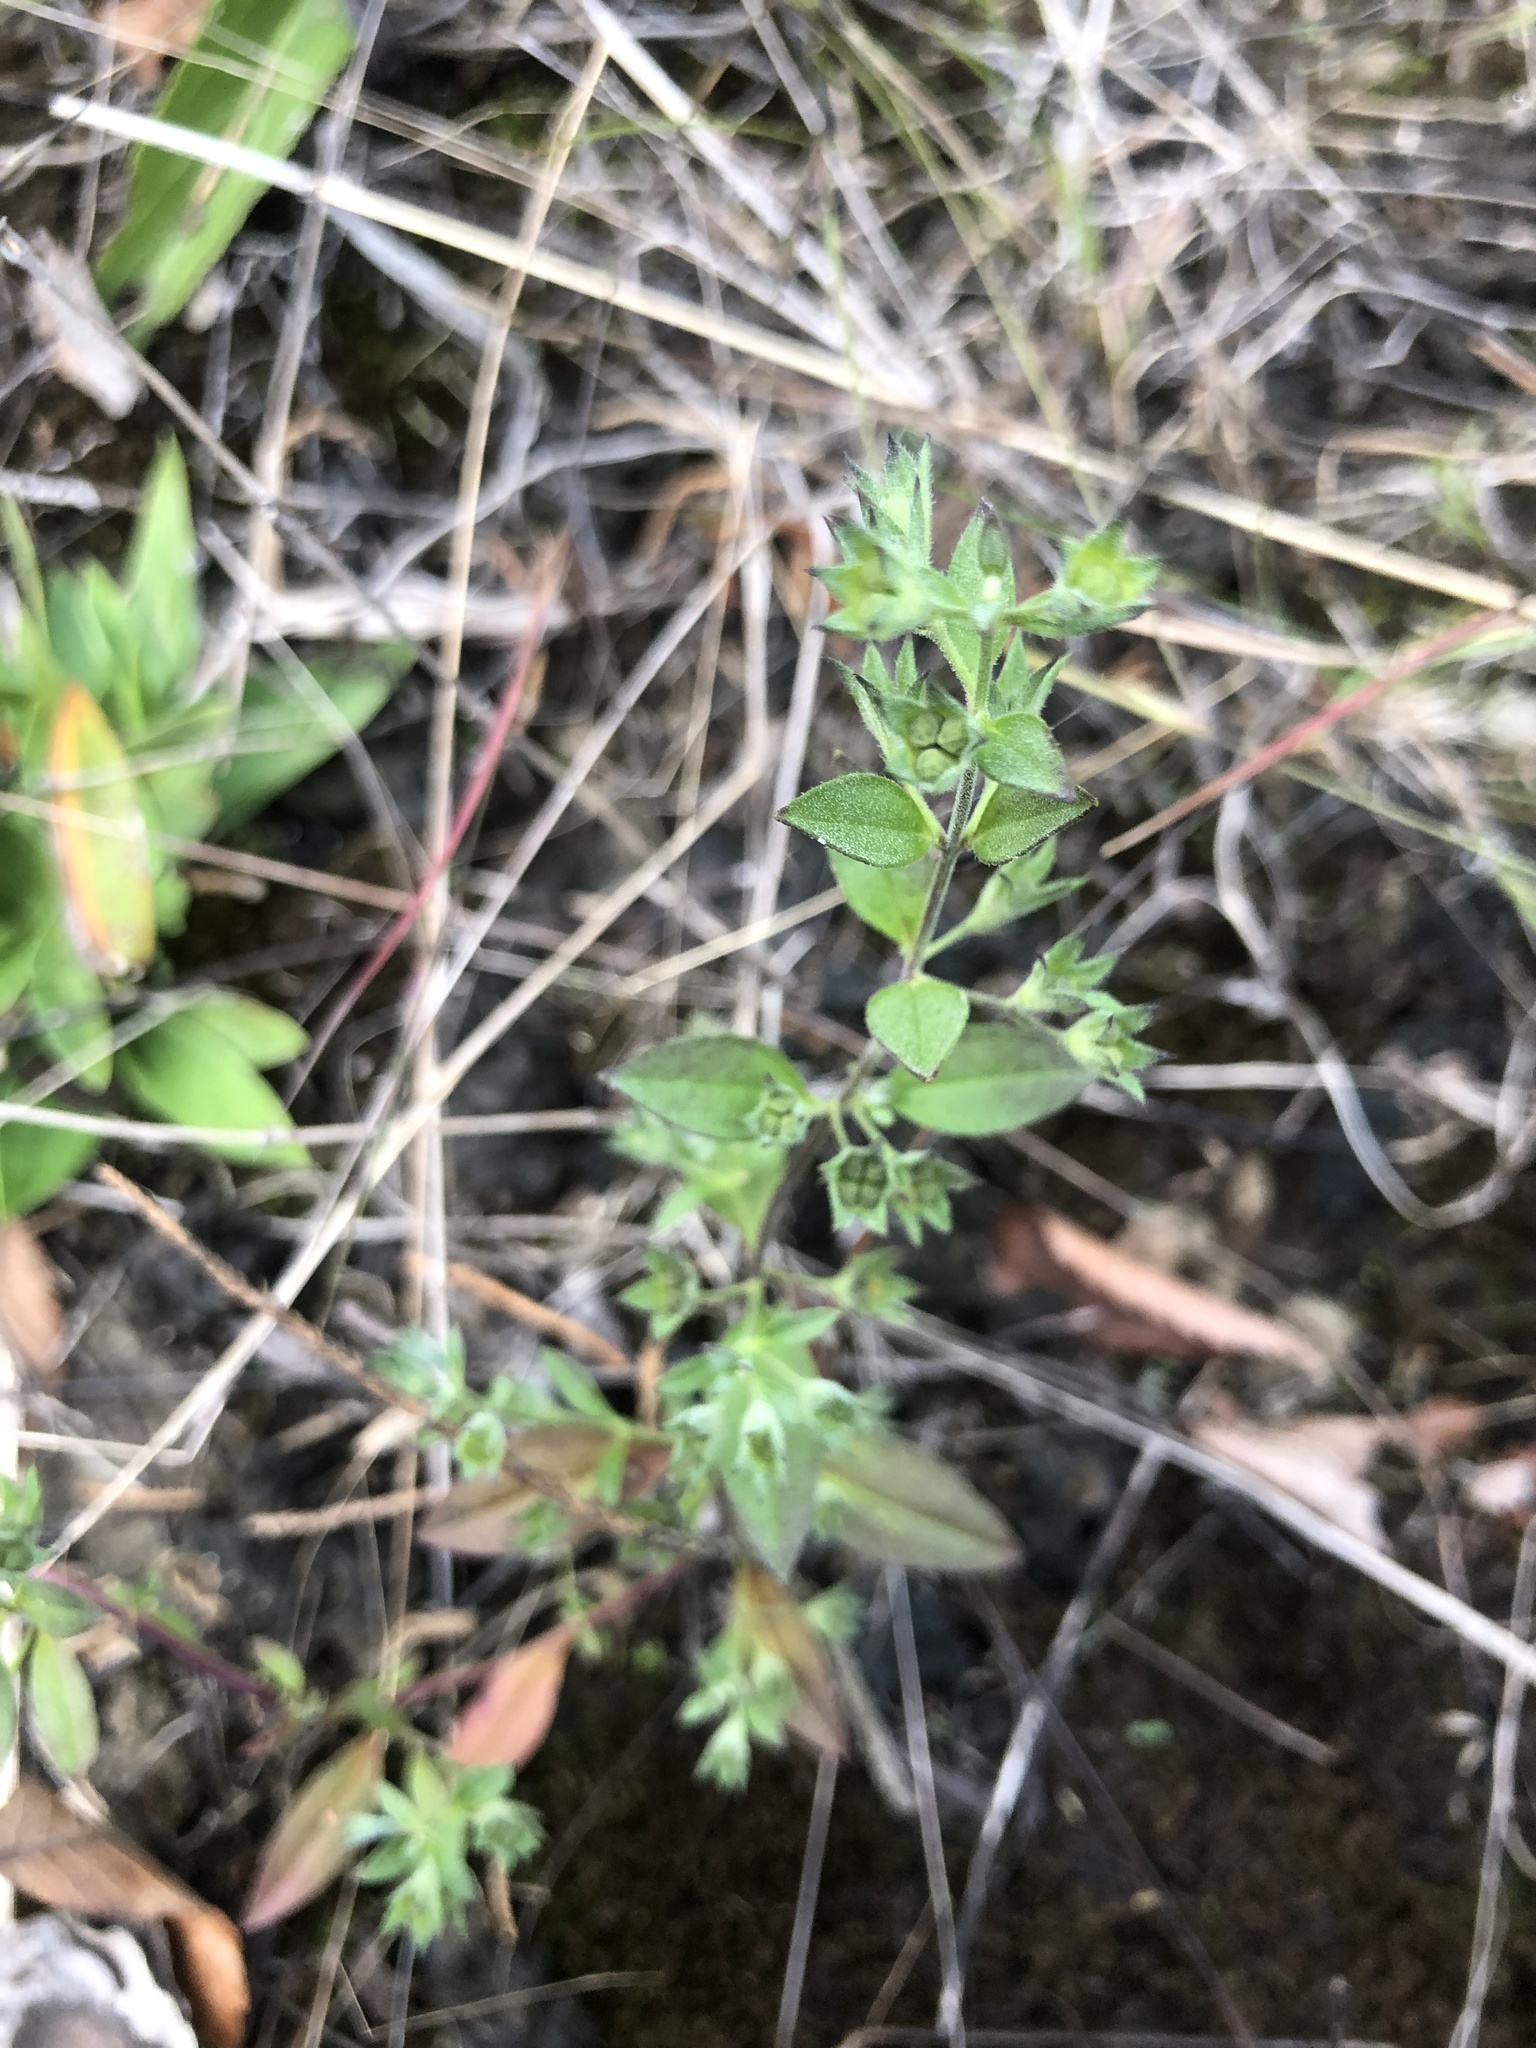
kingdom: Plantae
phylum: Tracheophyta
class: Magnoliopsida
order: Lamiales
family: Lamiaceae
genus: Trichostema
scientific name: Trichostema brachiatum
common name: False pennyroyal
